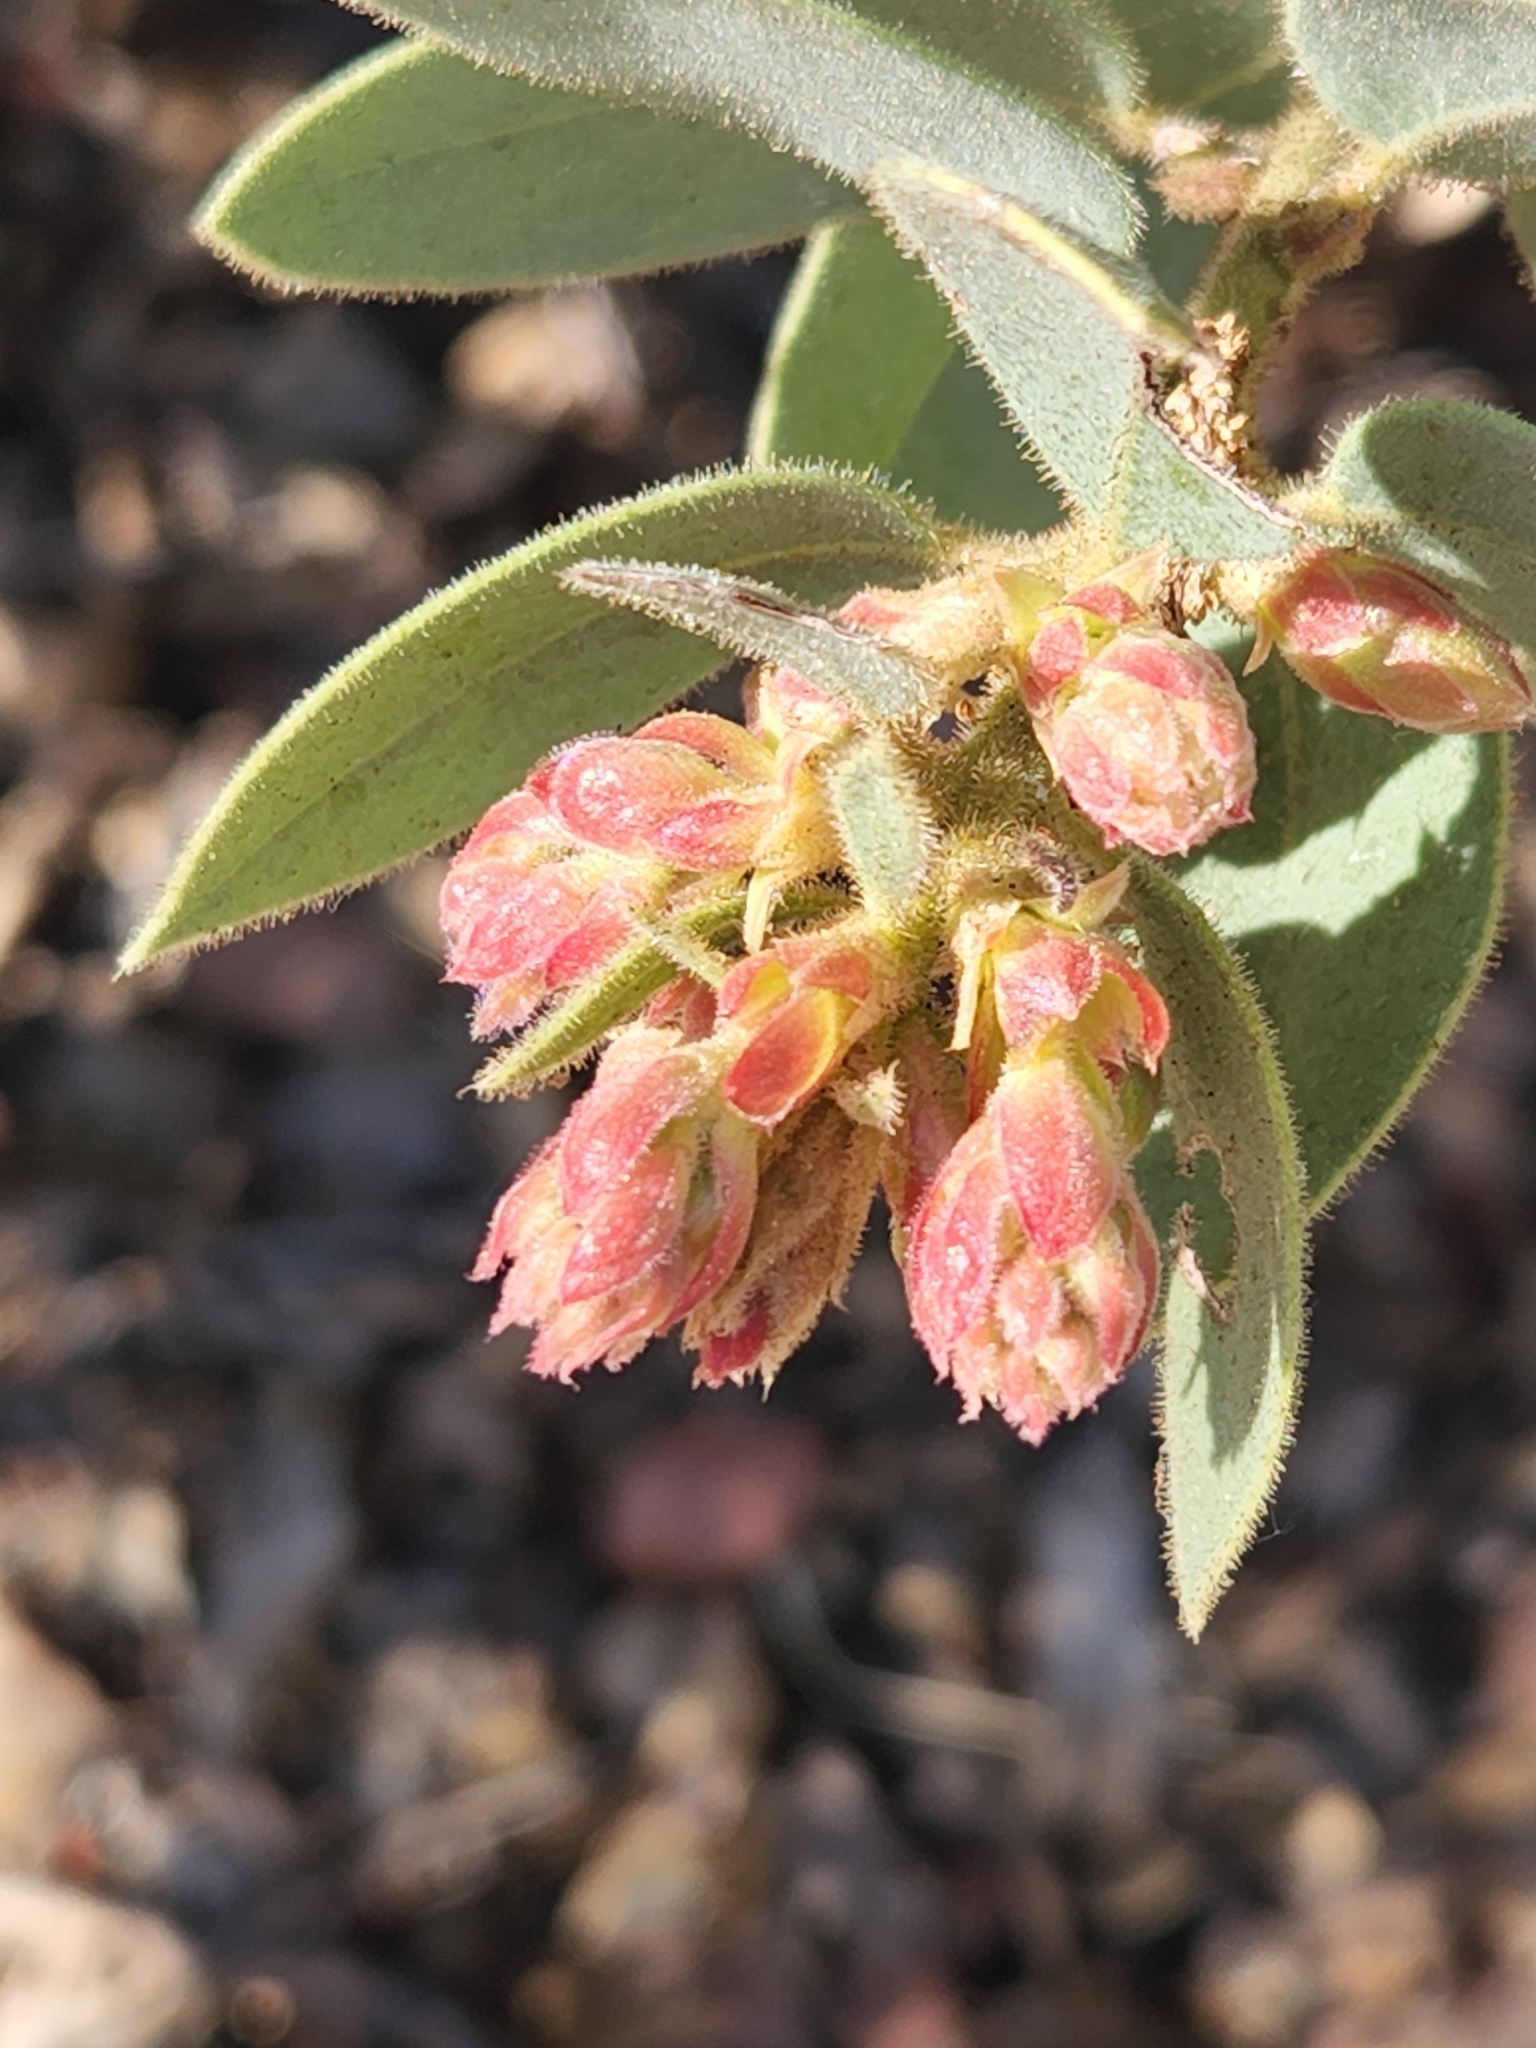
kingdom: Plantae
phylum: Tracheophyta
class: Magnoliopsida
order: Ericales
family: Ericaceae
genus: Arctostaphylos
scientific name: Arctostaphylos pringlei
